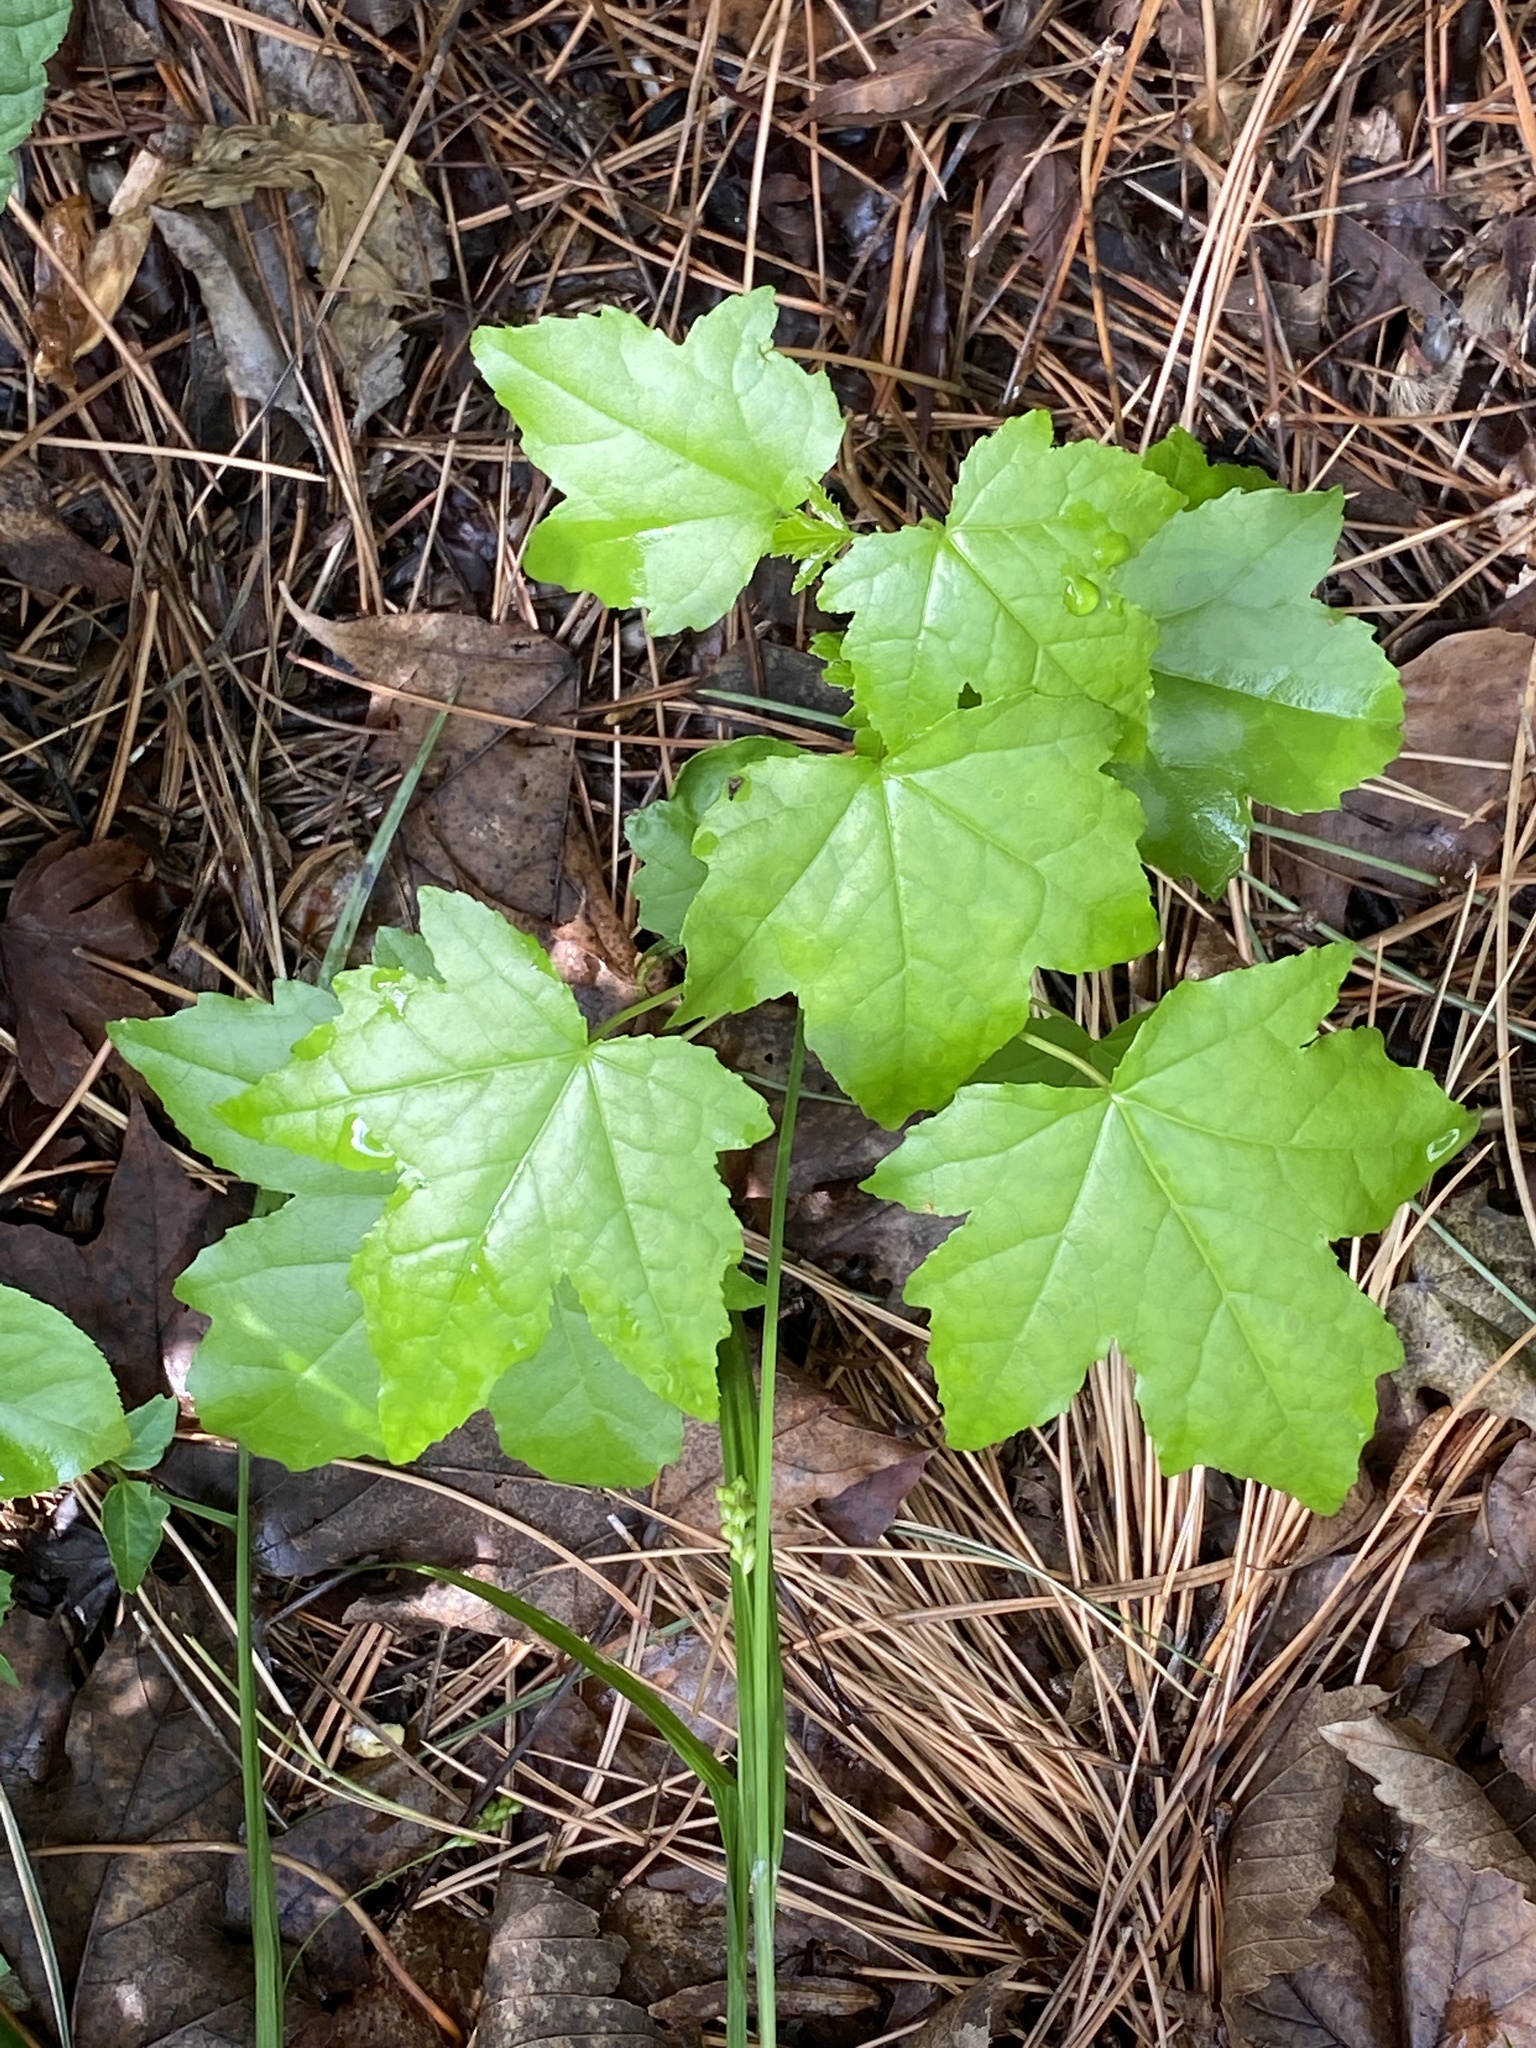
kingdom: Plantae
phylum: Tracheophyta
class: Magnoliopsida
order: Saxifragales
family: Altingiaceae
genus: Liquidambar
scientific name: Liquidambar styraciflua
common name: Sweet gum
